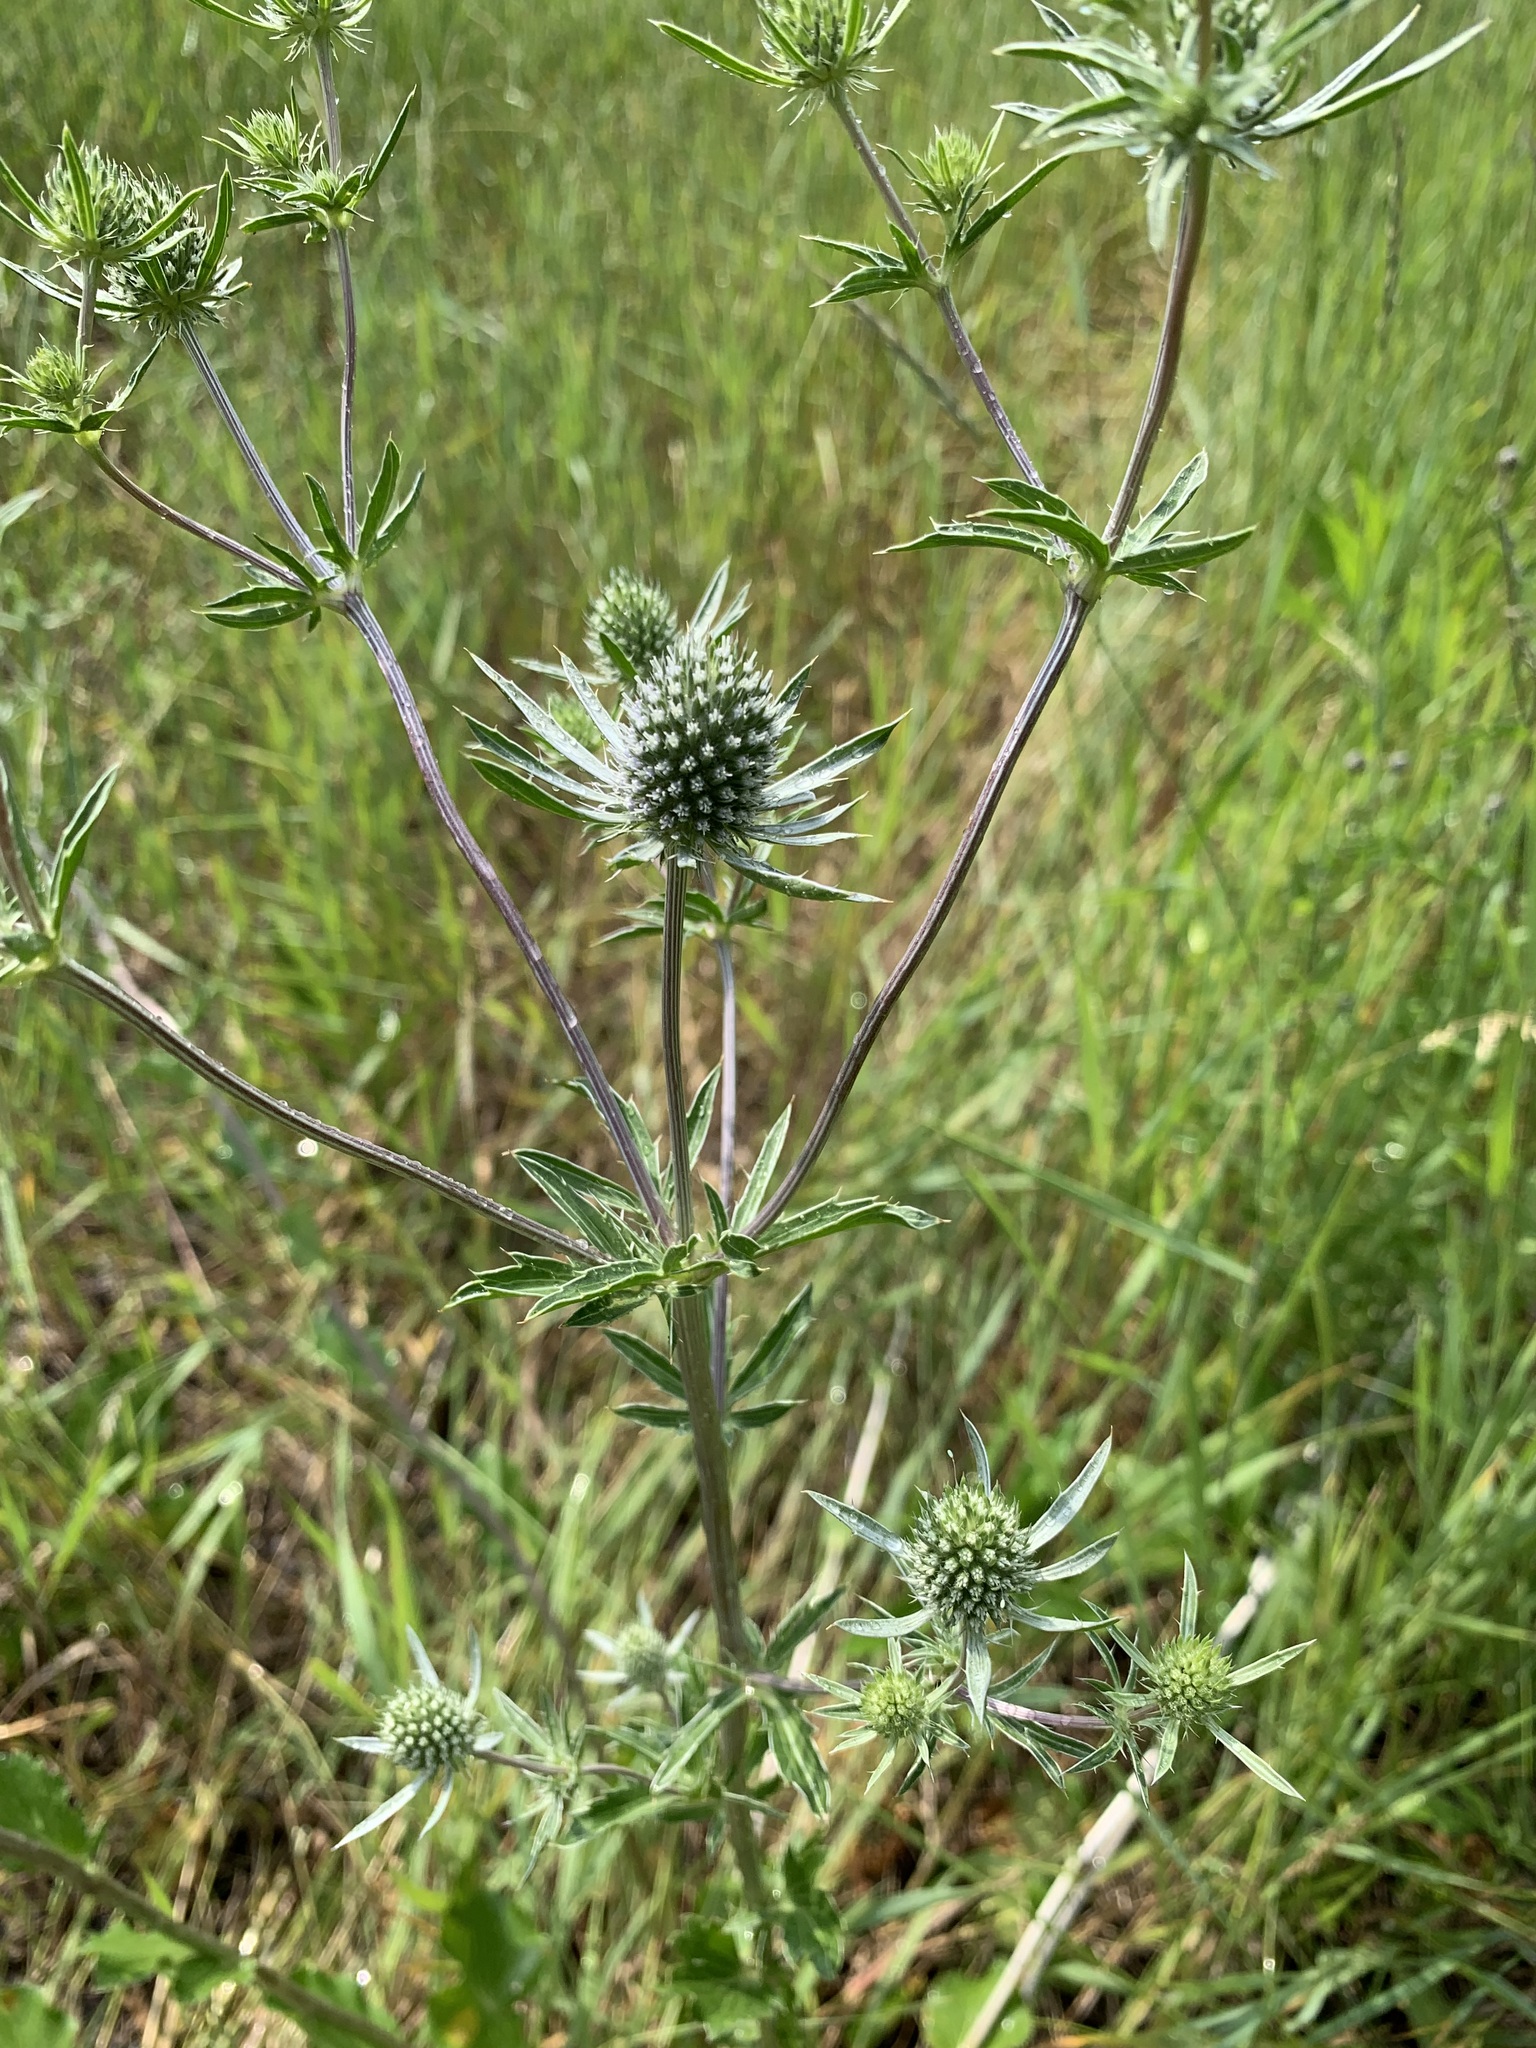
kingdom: Plantae
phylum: Tracheophyta
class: Magnoliopsida
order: Apiales
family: Apiaceae
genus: Eryngium
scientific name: Eryngium planum
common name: Blue eryngo
